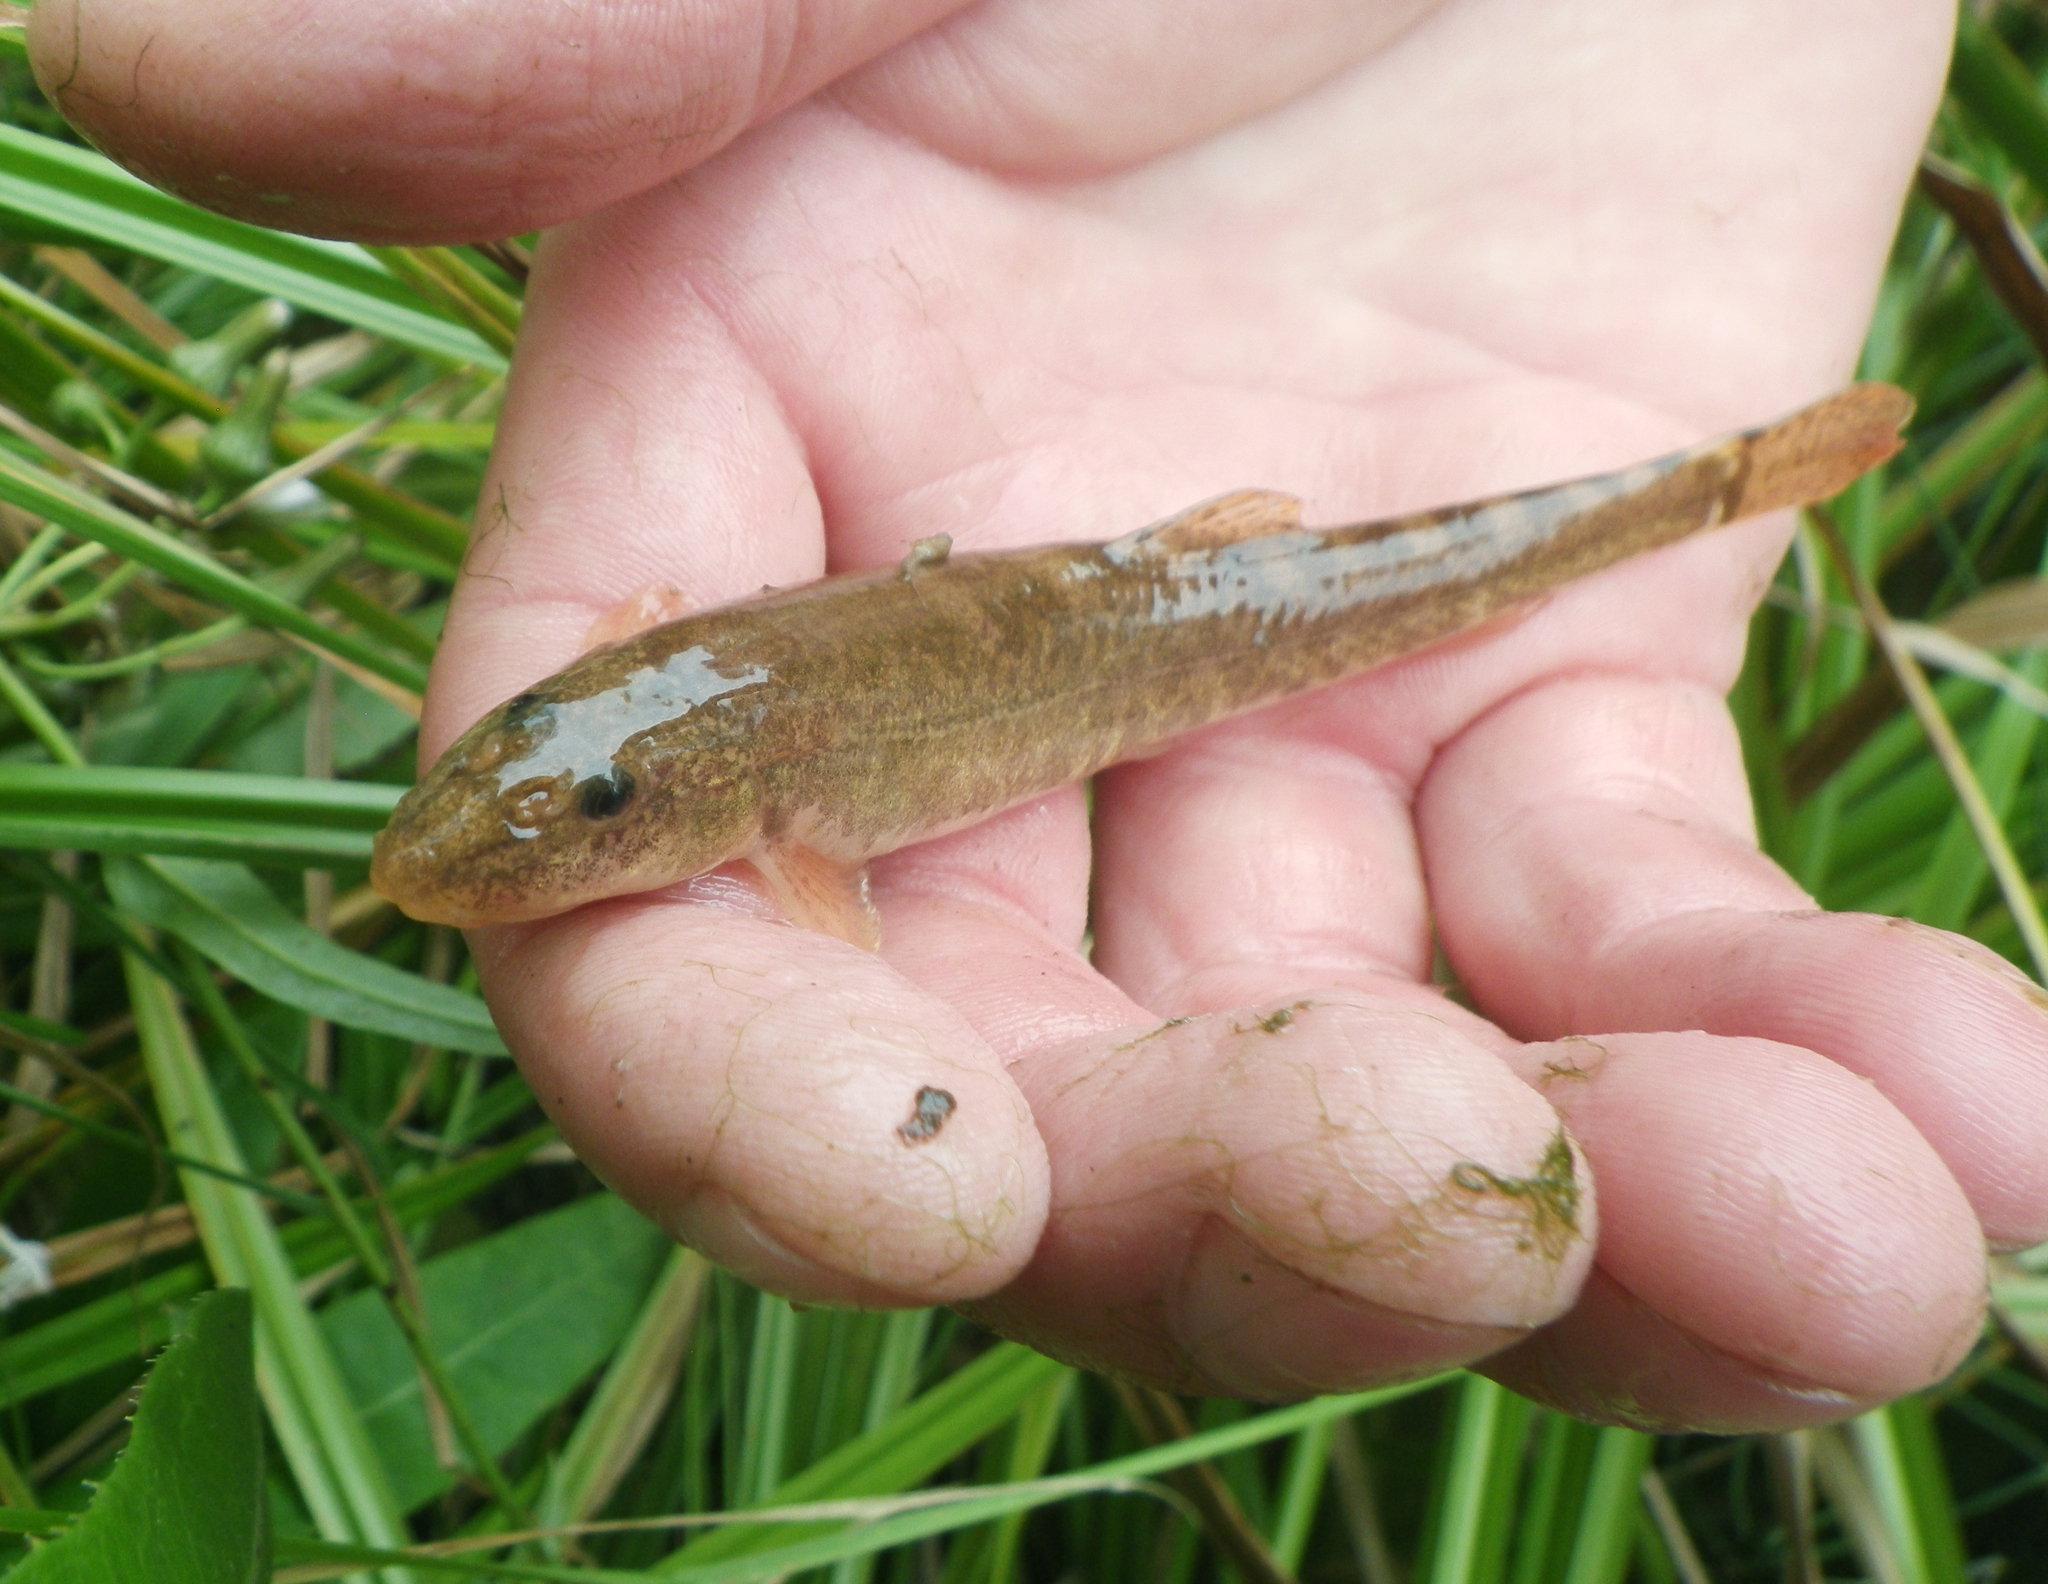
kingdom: Animalia
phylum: Chordata
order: Cypriniformes
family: Nemacheilidae
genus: Barbatula
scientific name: Barbatula toni
